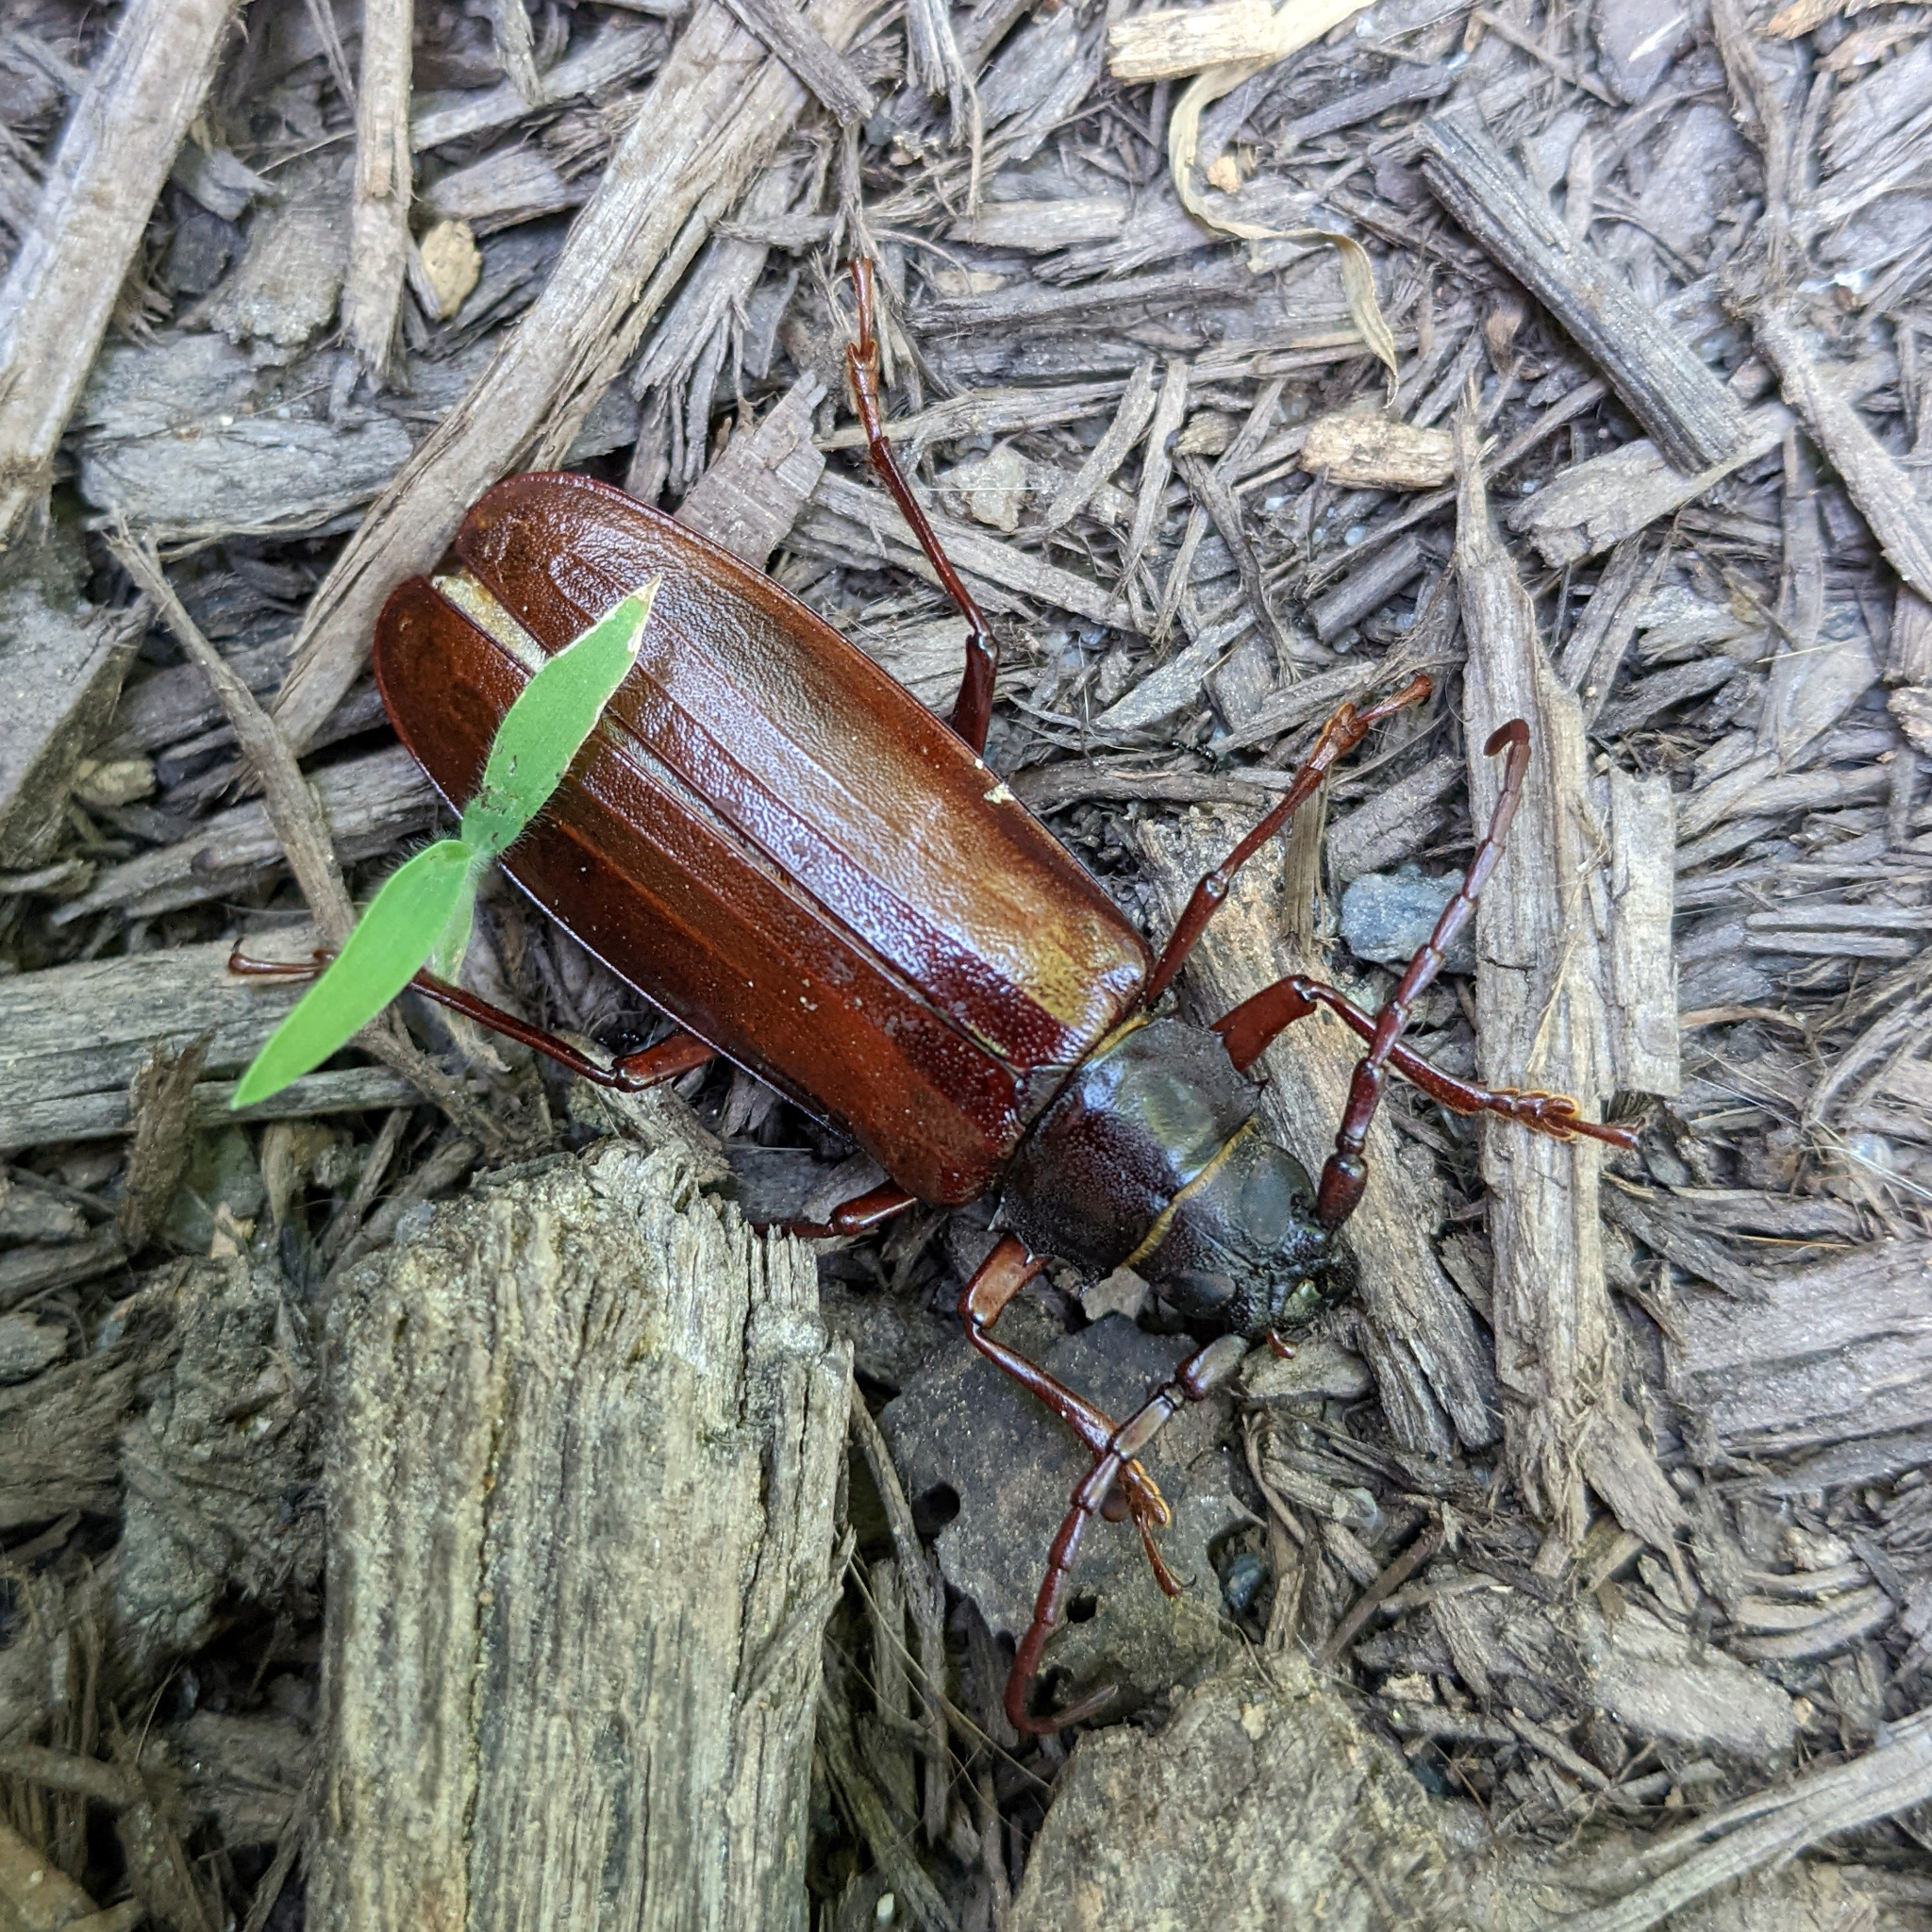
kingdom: Animalia
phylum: Arthropoda
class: Insecta
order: Coleoptera
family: Cerambycidae
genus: Orthosoma
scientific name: Orthosoma brunneum
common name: Brown prionid beetle
